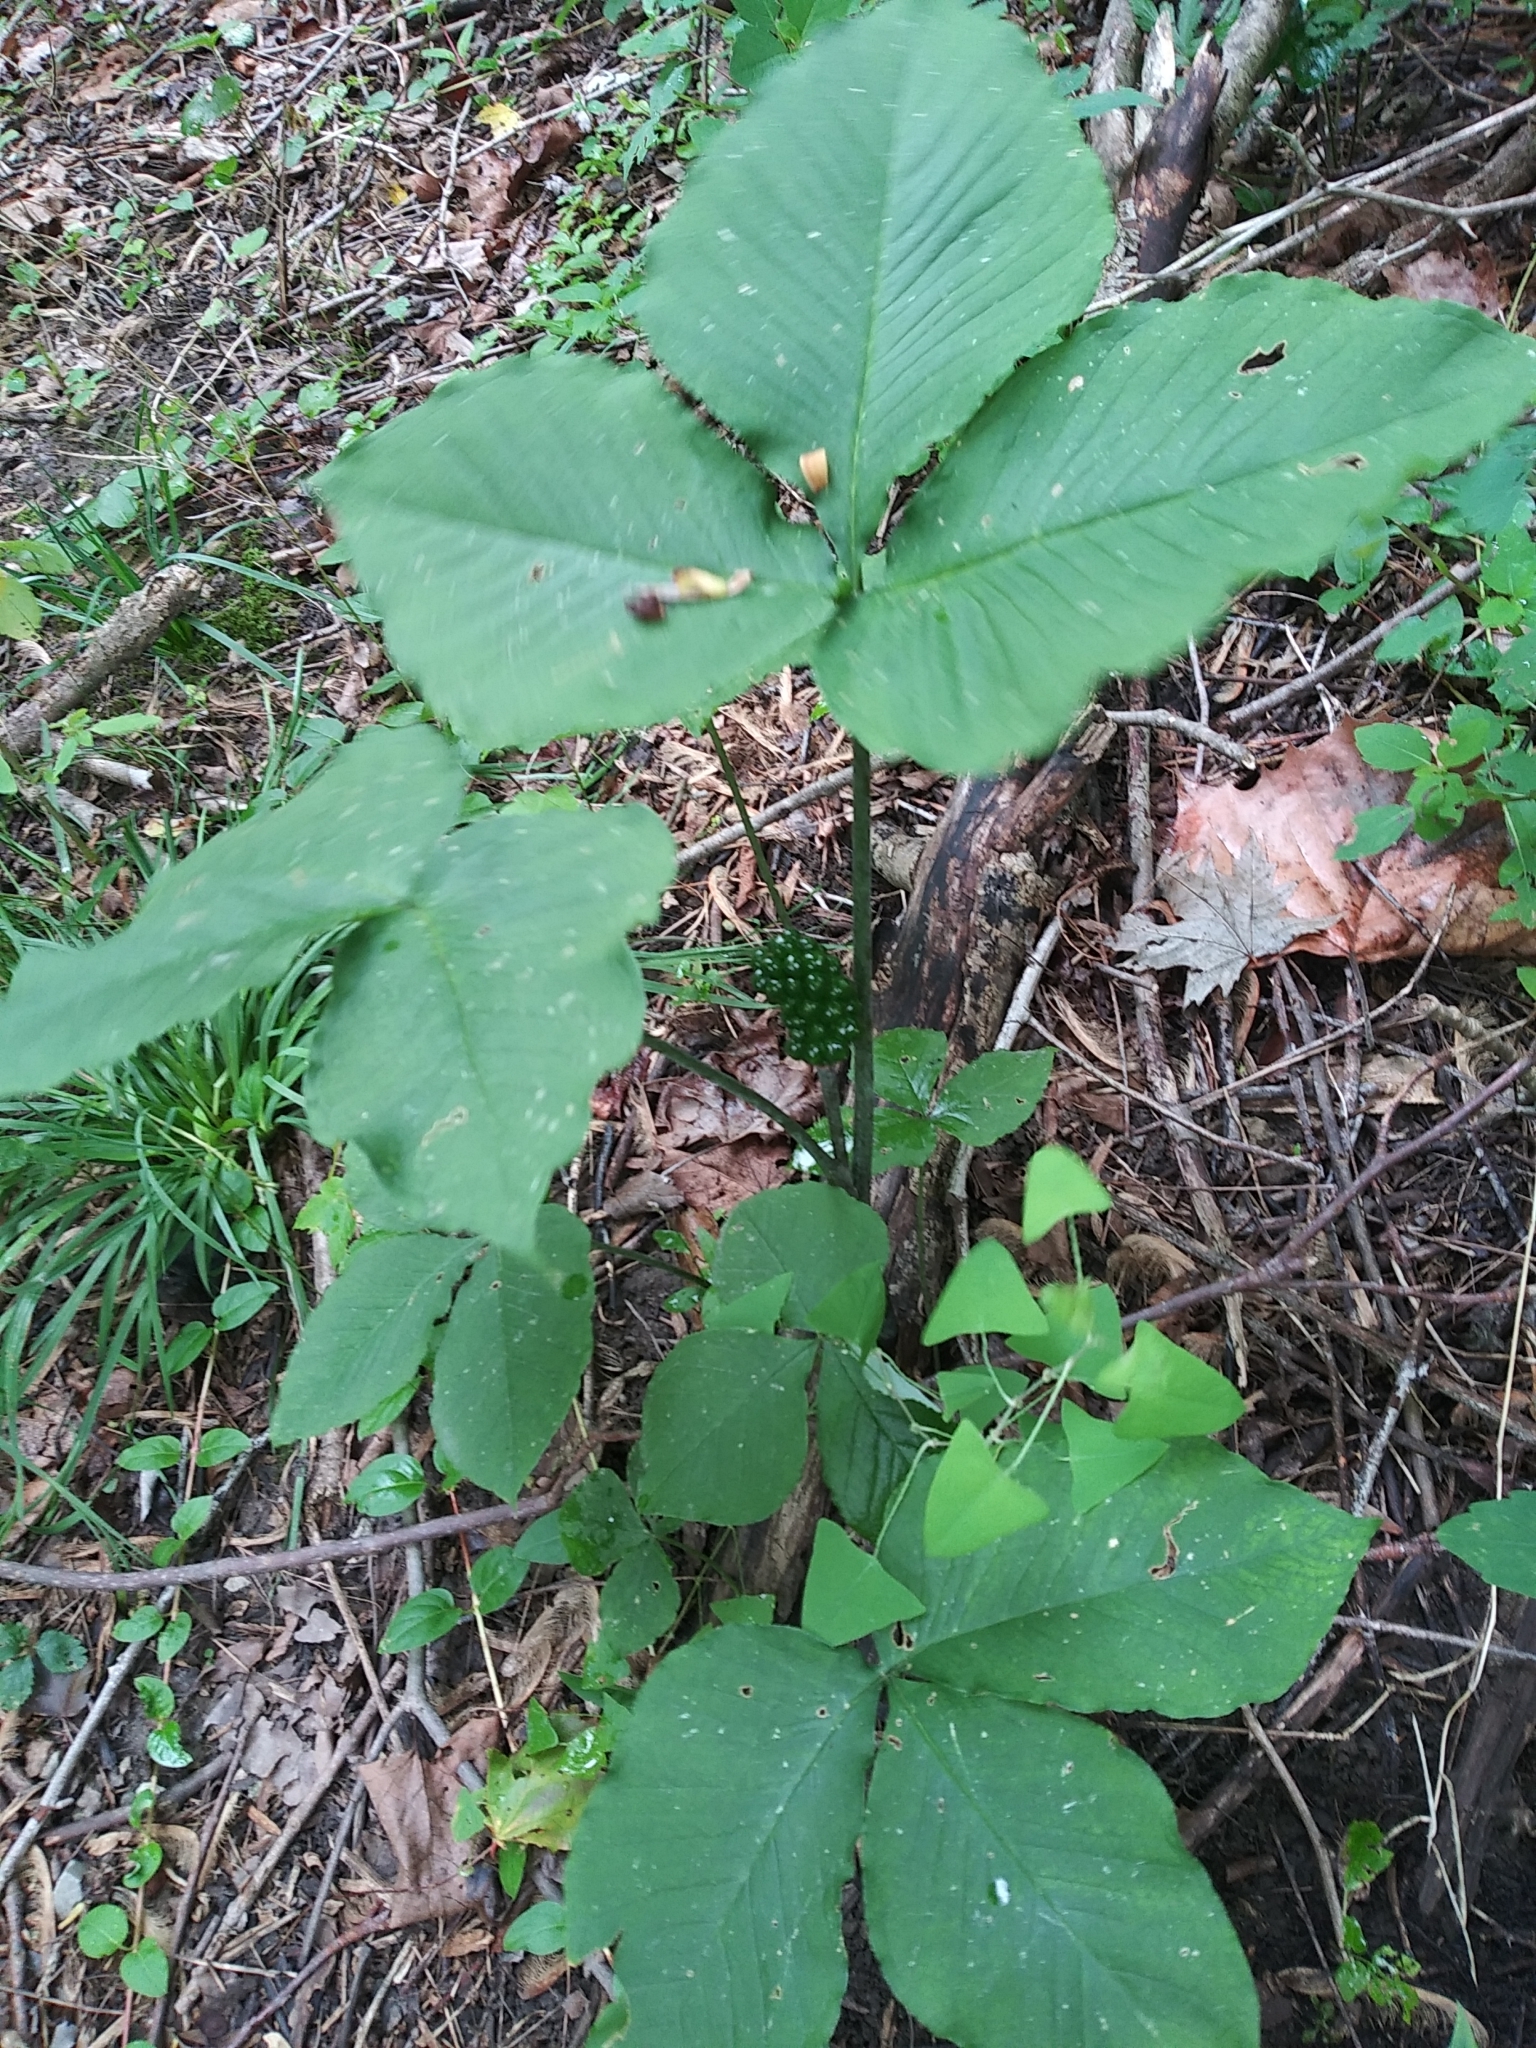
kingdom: Plantae
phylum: Tracheophyta
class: Liliopsida
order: Alismatales
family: Araceae
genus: Arisaema
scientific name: Arisaema triphyllum
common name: Jack-in-the-pulpit
